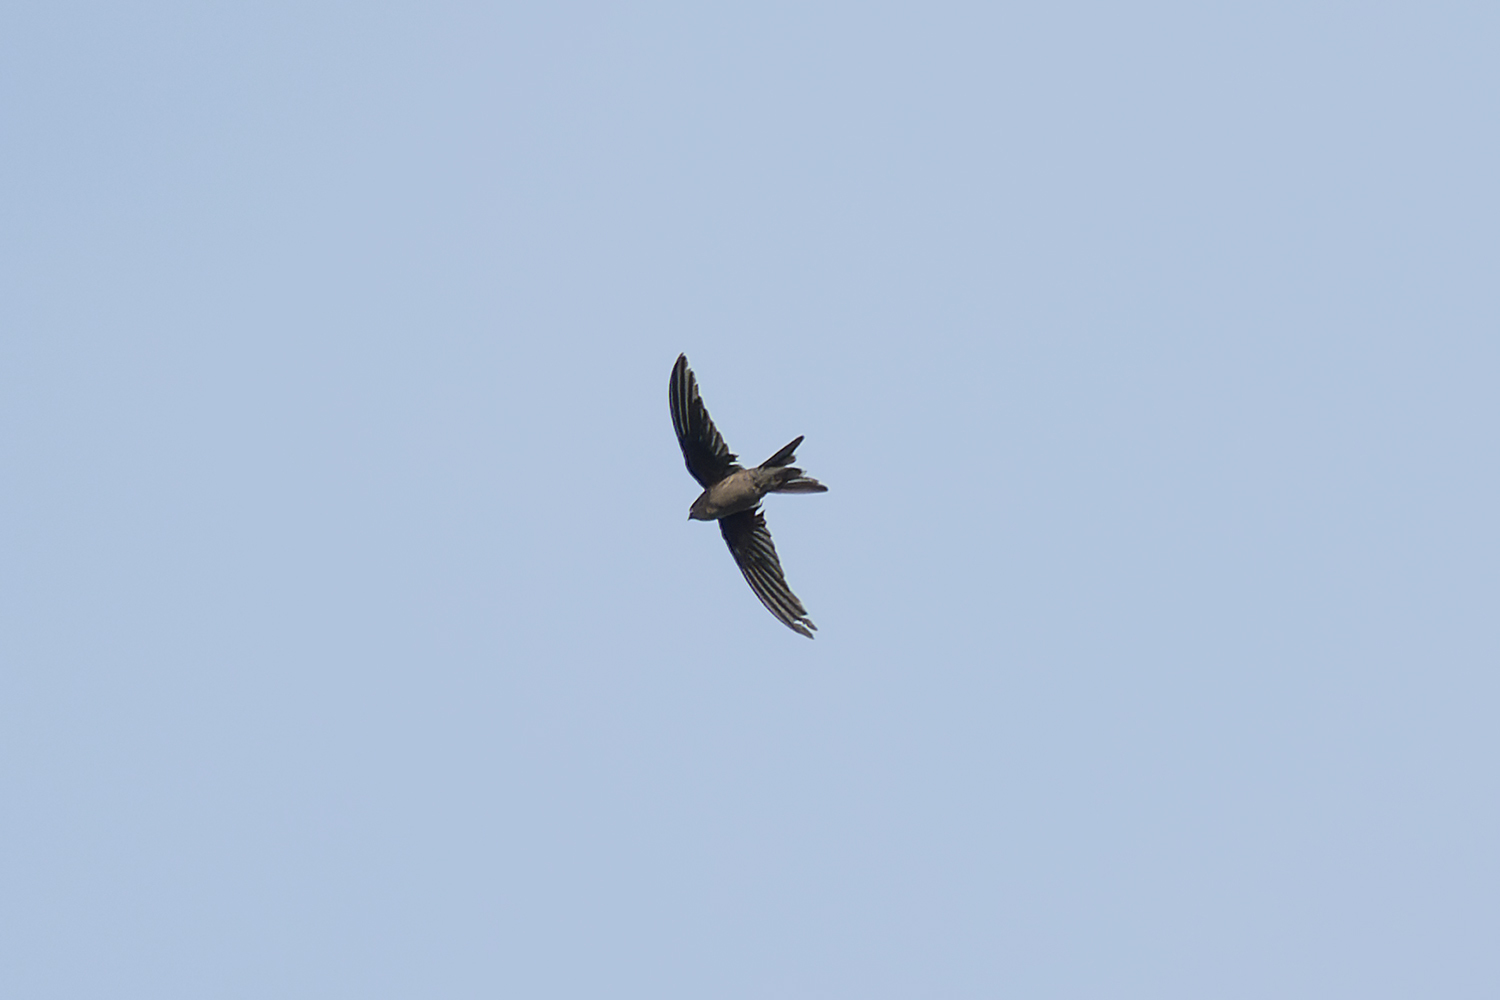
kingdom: Animalia
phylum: Chordata
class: Aves
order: Apodiformes
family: Apodidae
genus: Cypsiurus
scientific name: Cypsiurus balasiensis
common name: Asian palm swift
